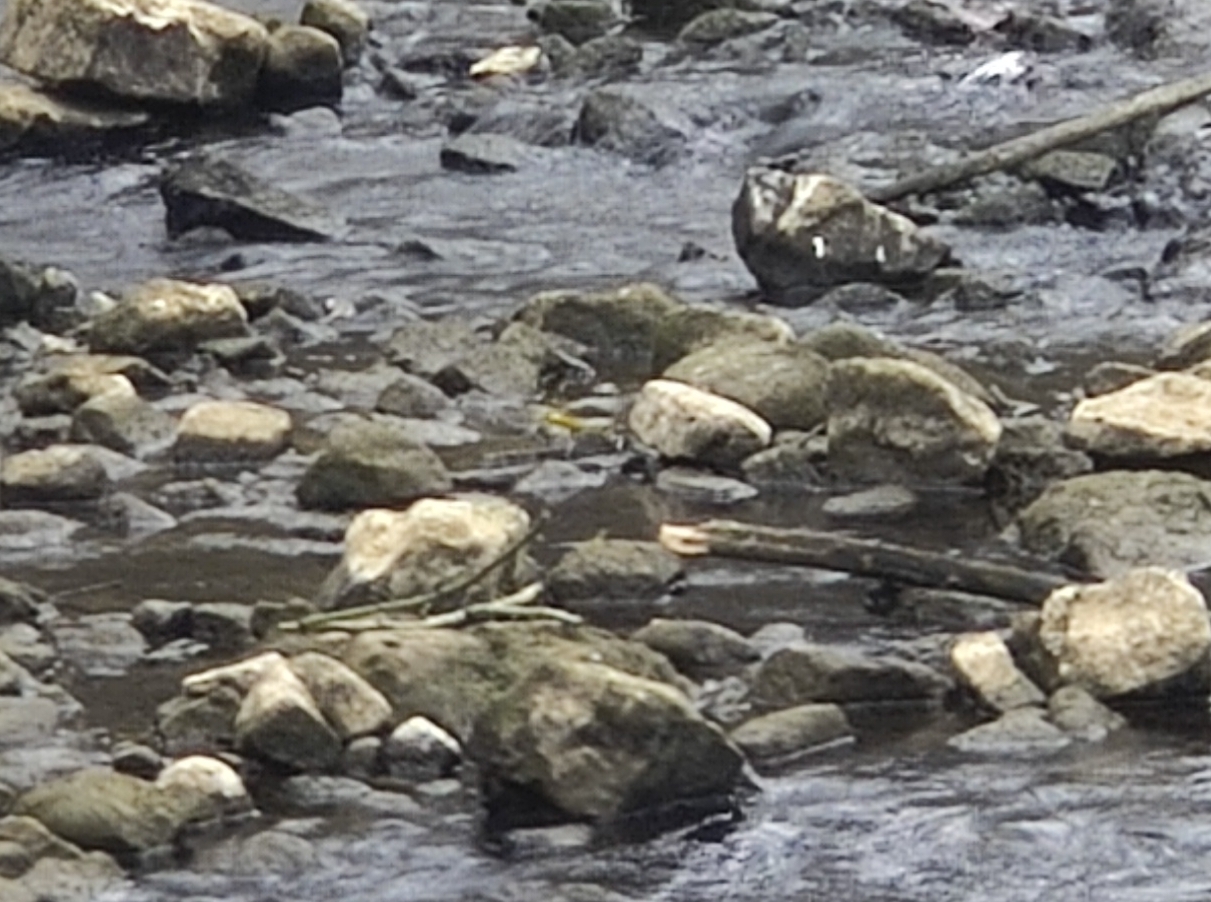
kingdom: Animalia
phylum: Chordata
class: Aves
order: Passeriformes
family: Motacillidae
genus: Motacilla
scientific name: Motacilla cinerea
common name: Grey wagtail
